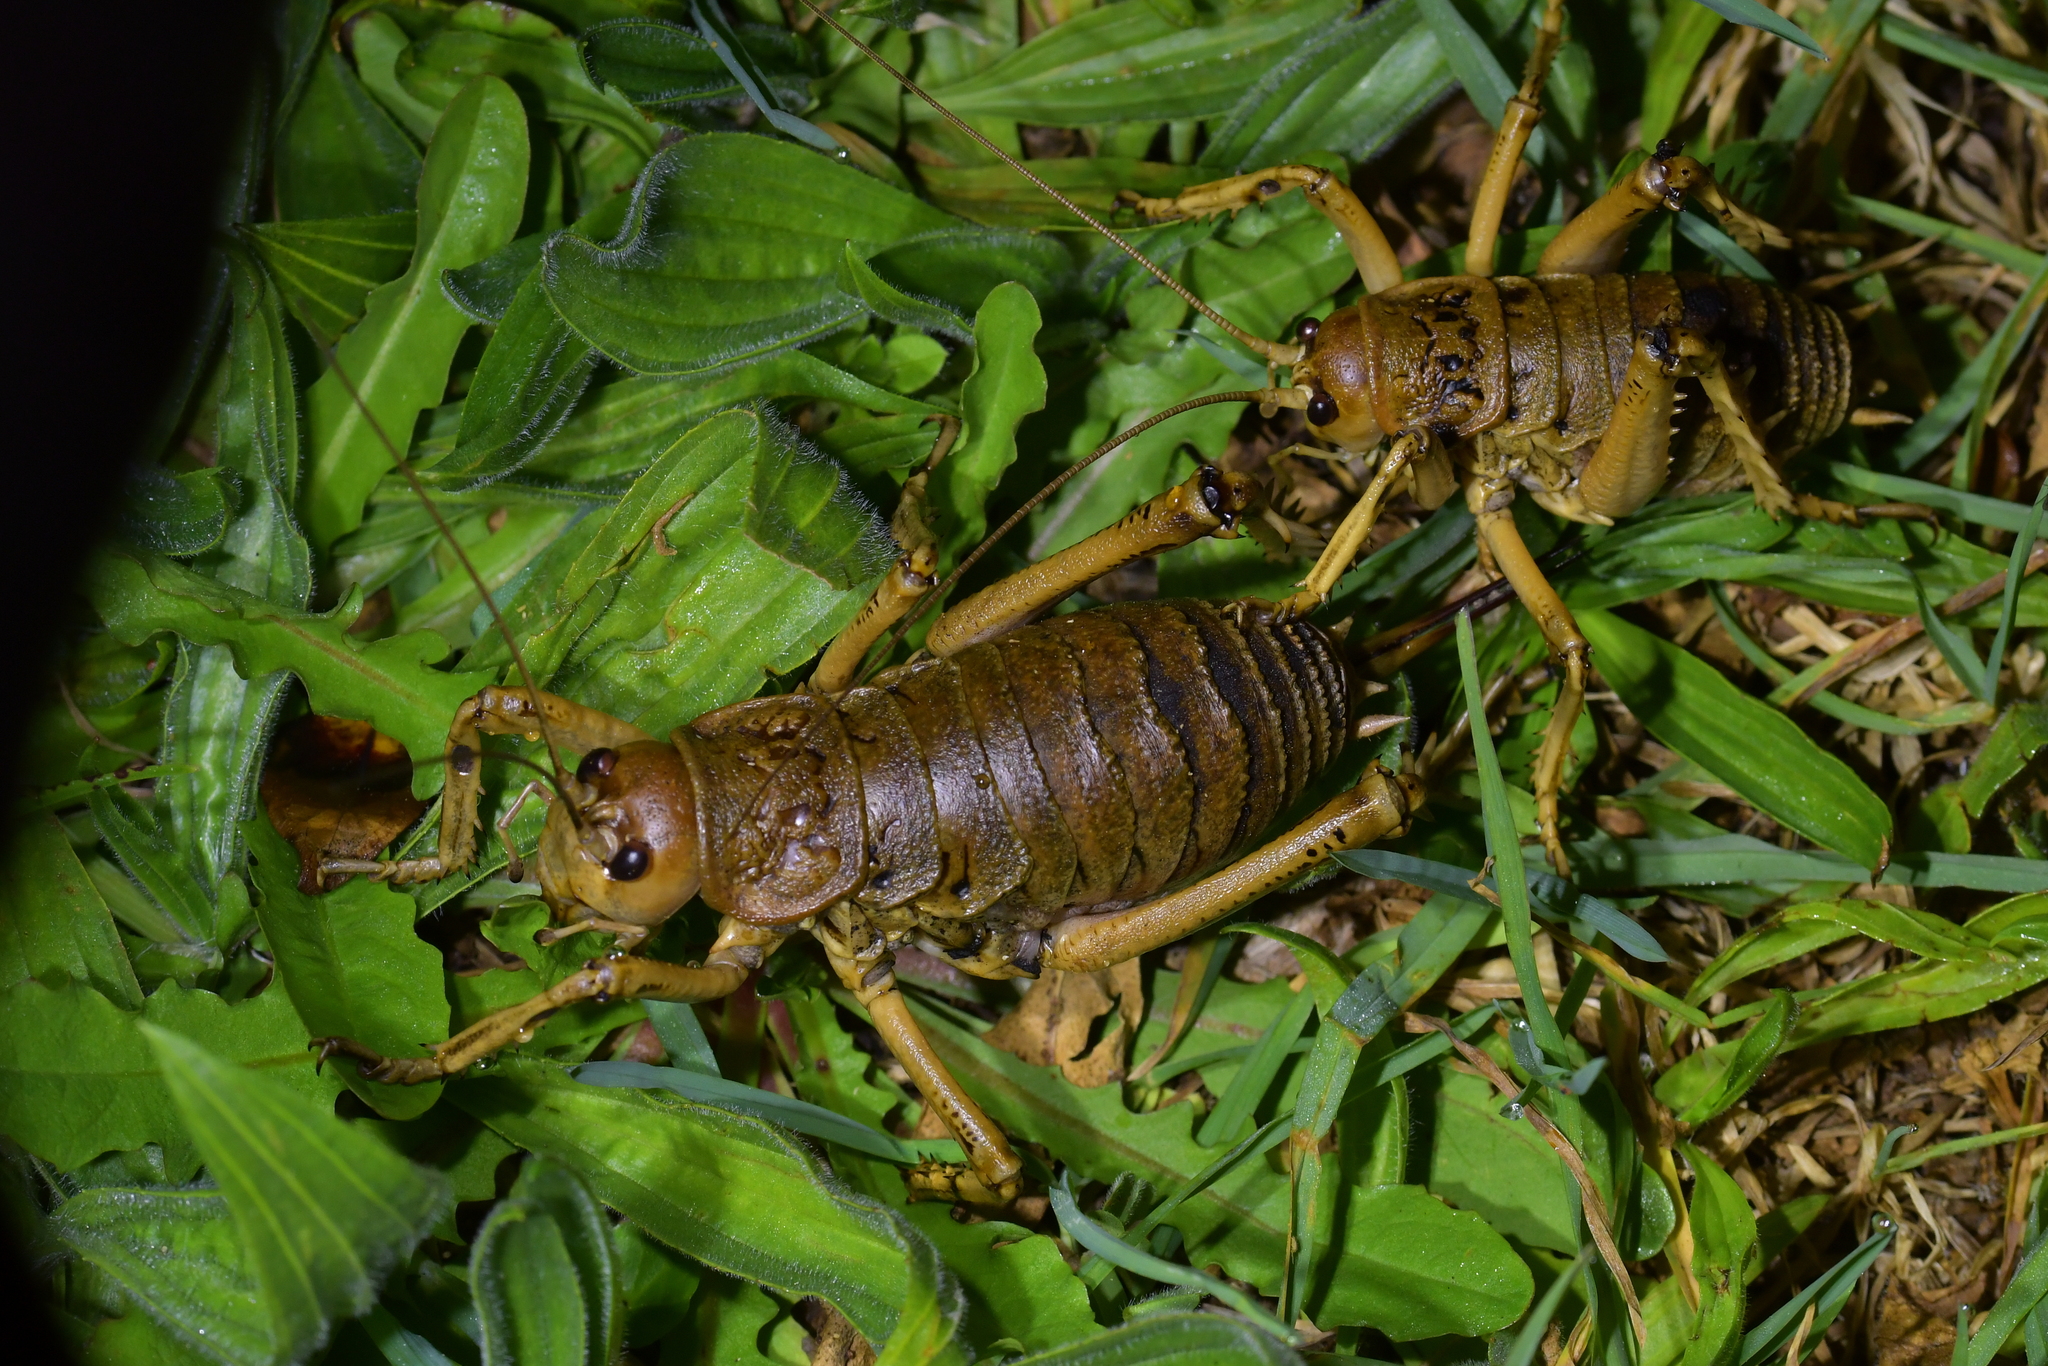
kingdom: Animalia
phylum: Arthropoda
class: Insecta
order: Orthoptera
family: Anostostomatidae
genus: Deinacrida
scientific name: Deinacrida rugosa
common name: Stephens island weta
